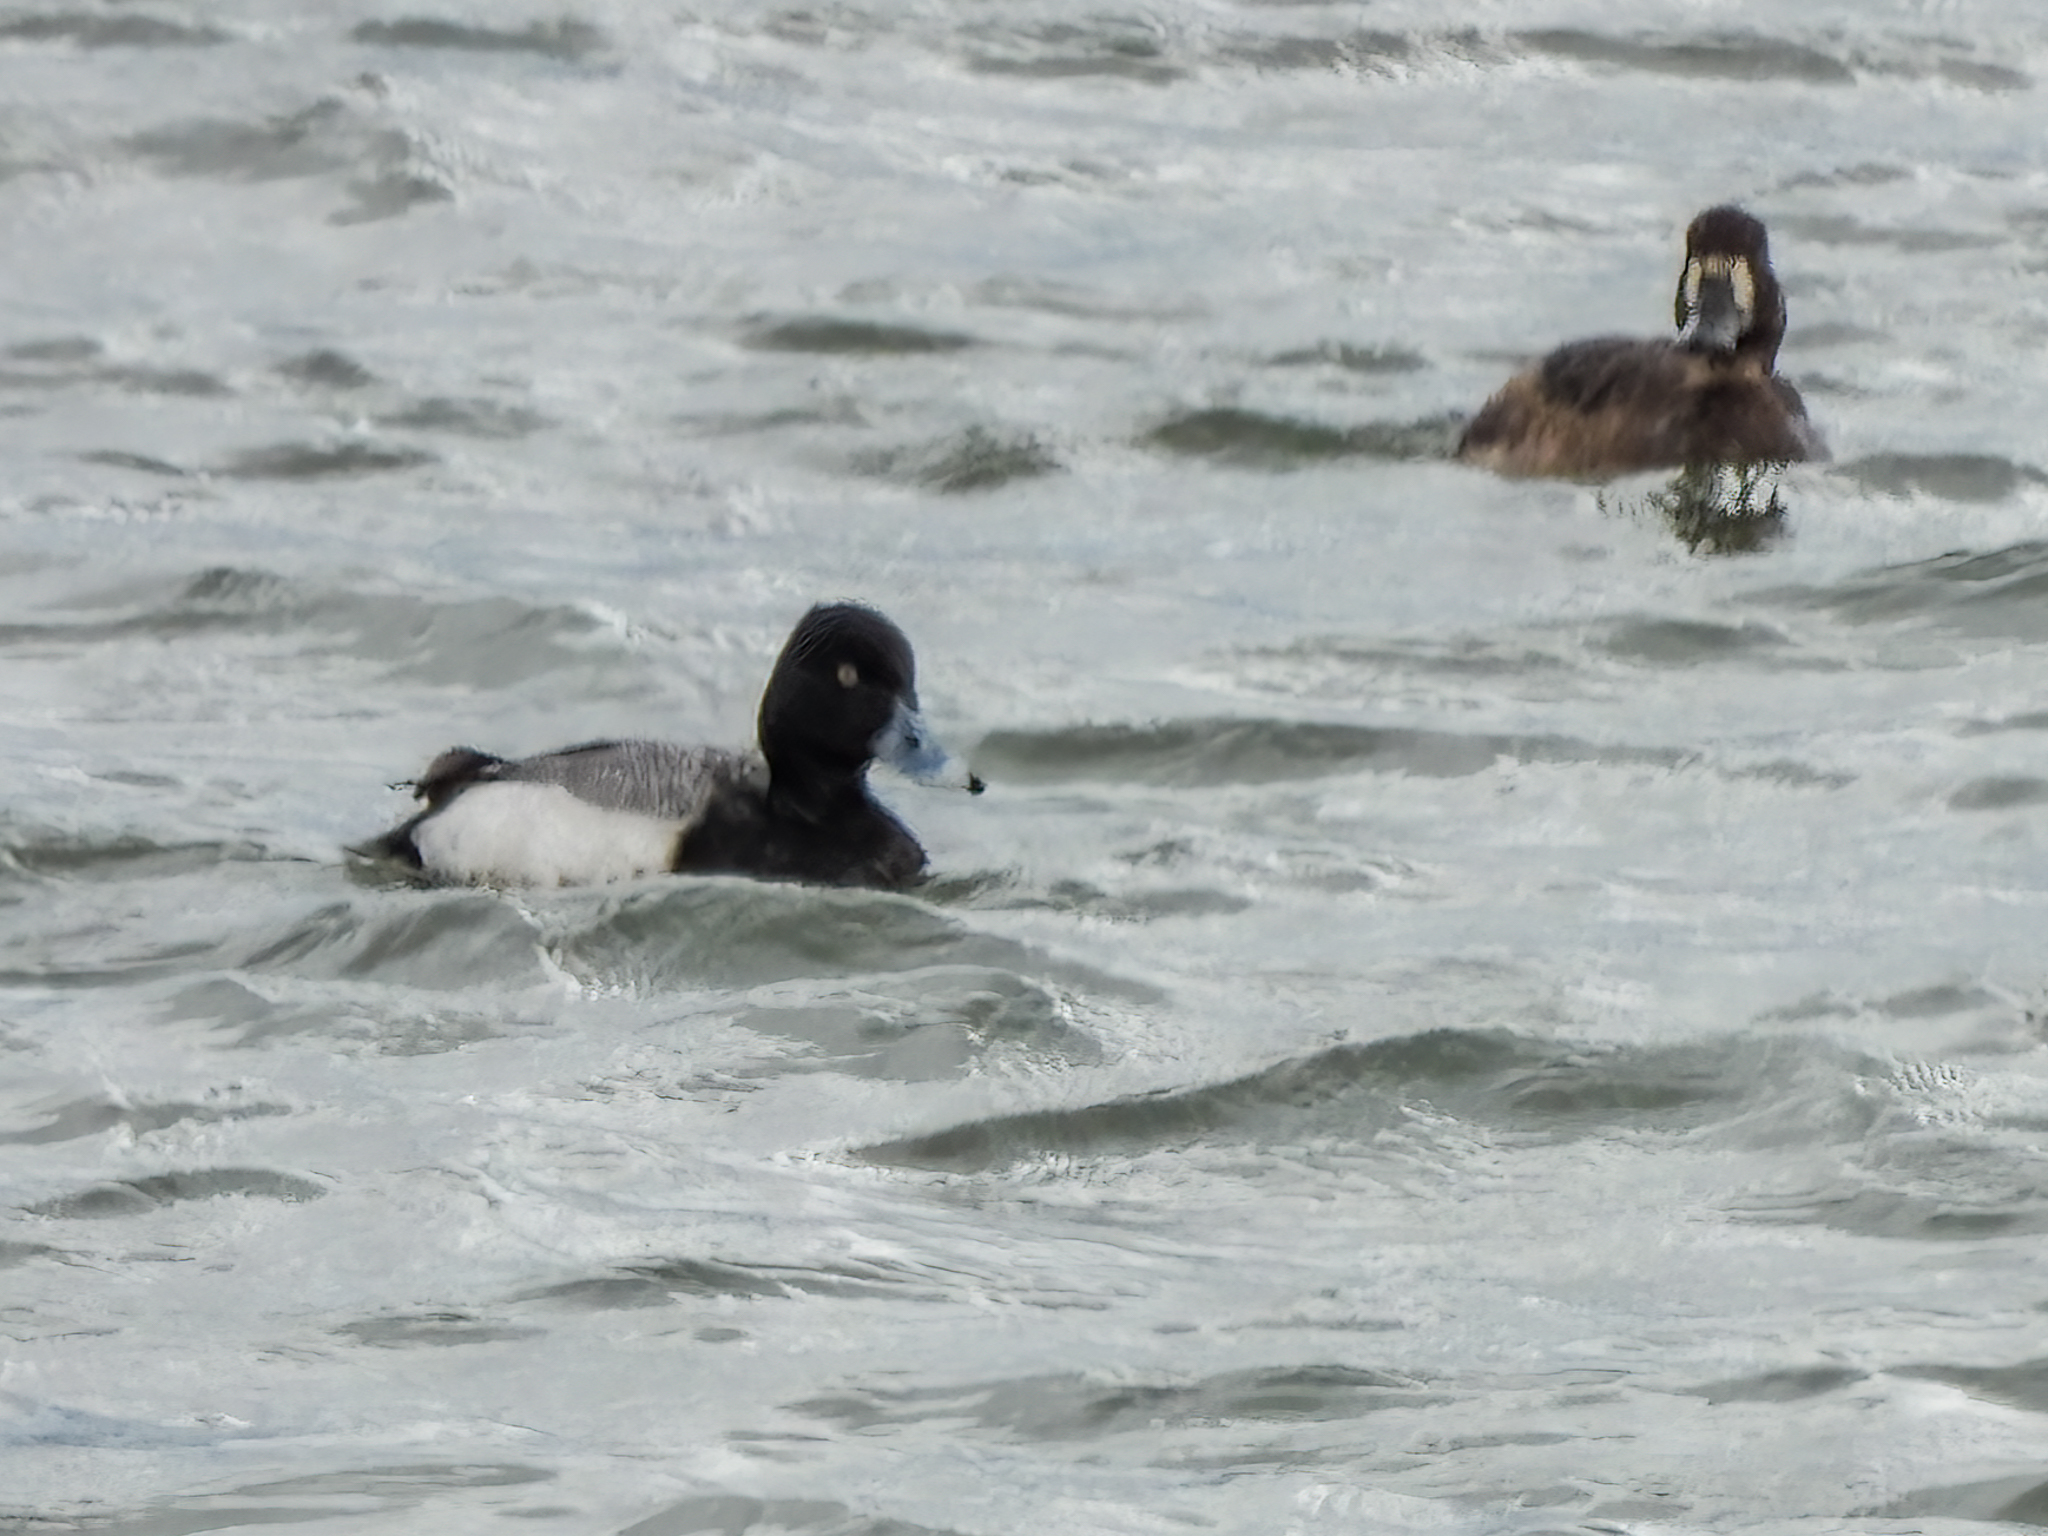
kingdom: Animalia
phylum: Chordata
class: Aves
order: Anseriformes
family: Anatidae
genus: Aythya
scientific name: Aythya affinis
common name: Lesser scaup
